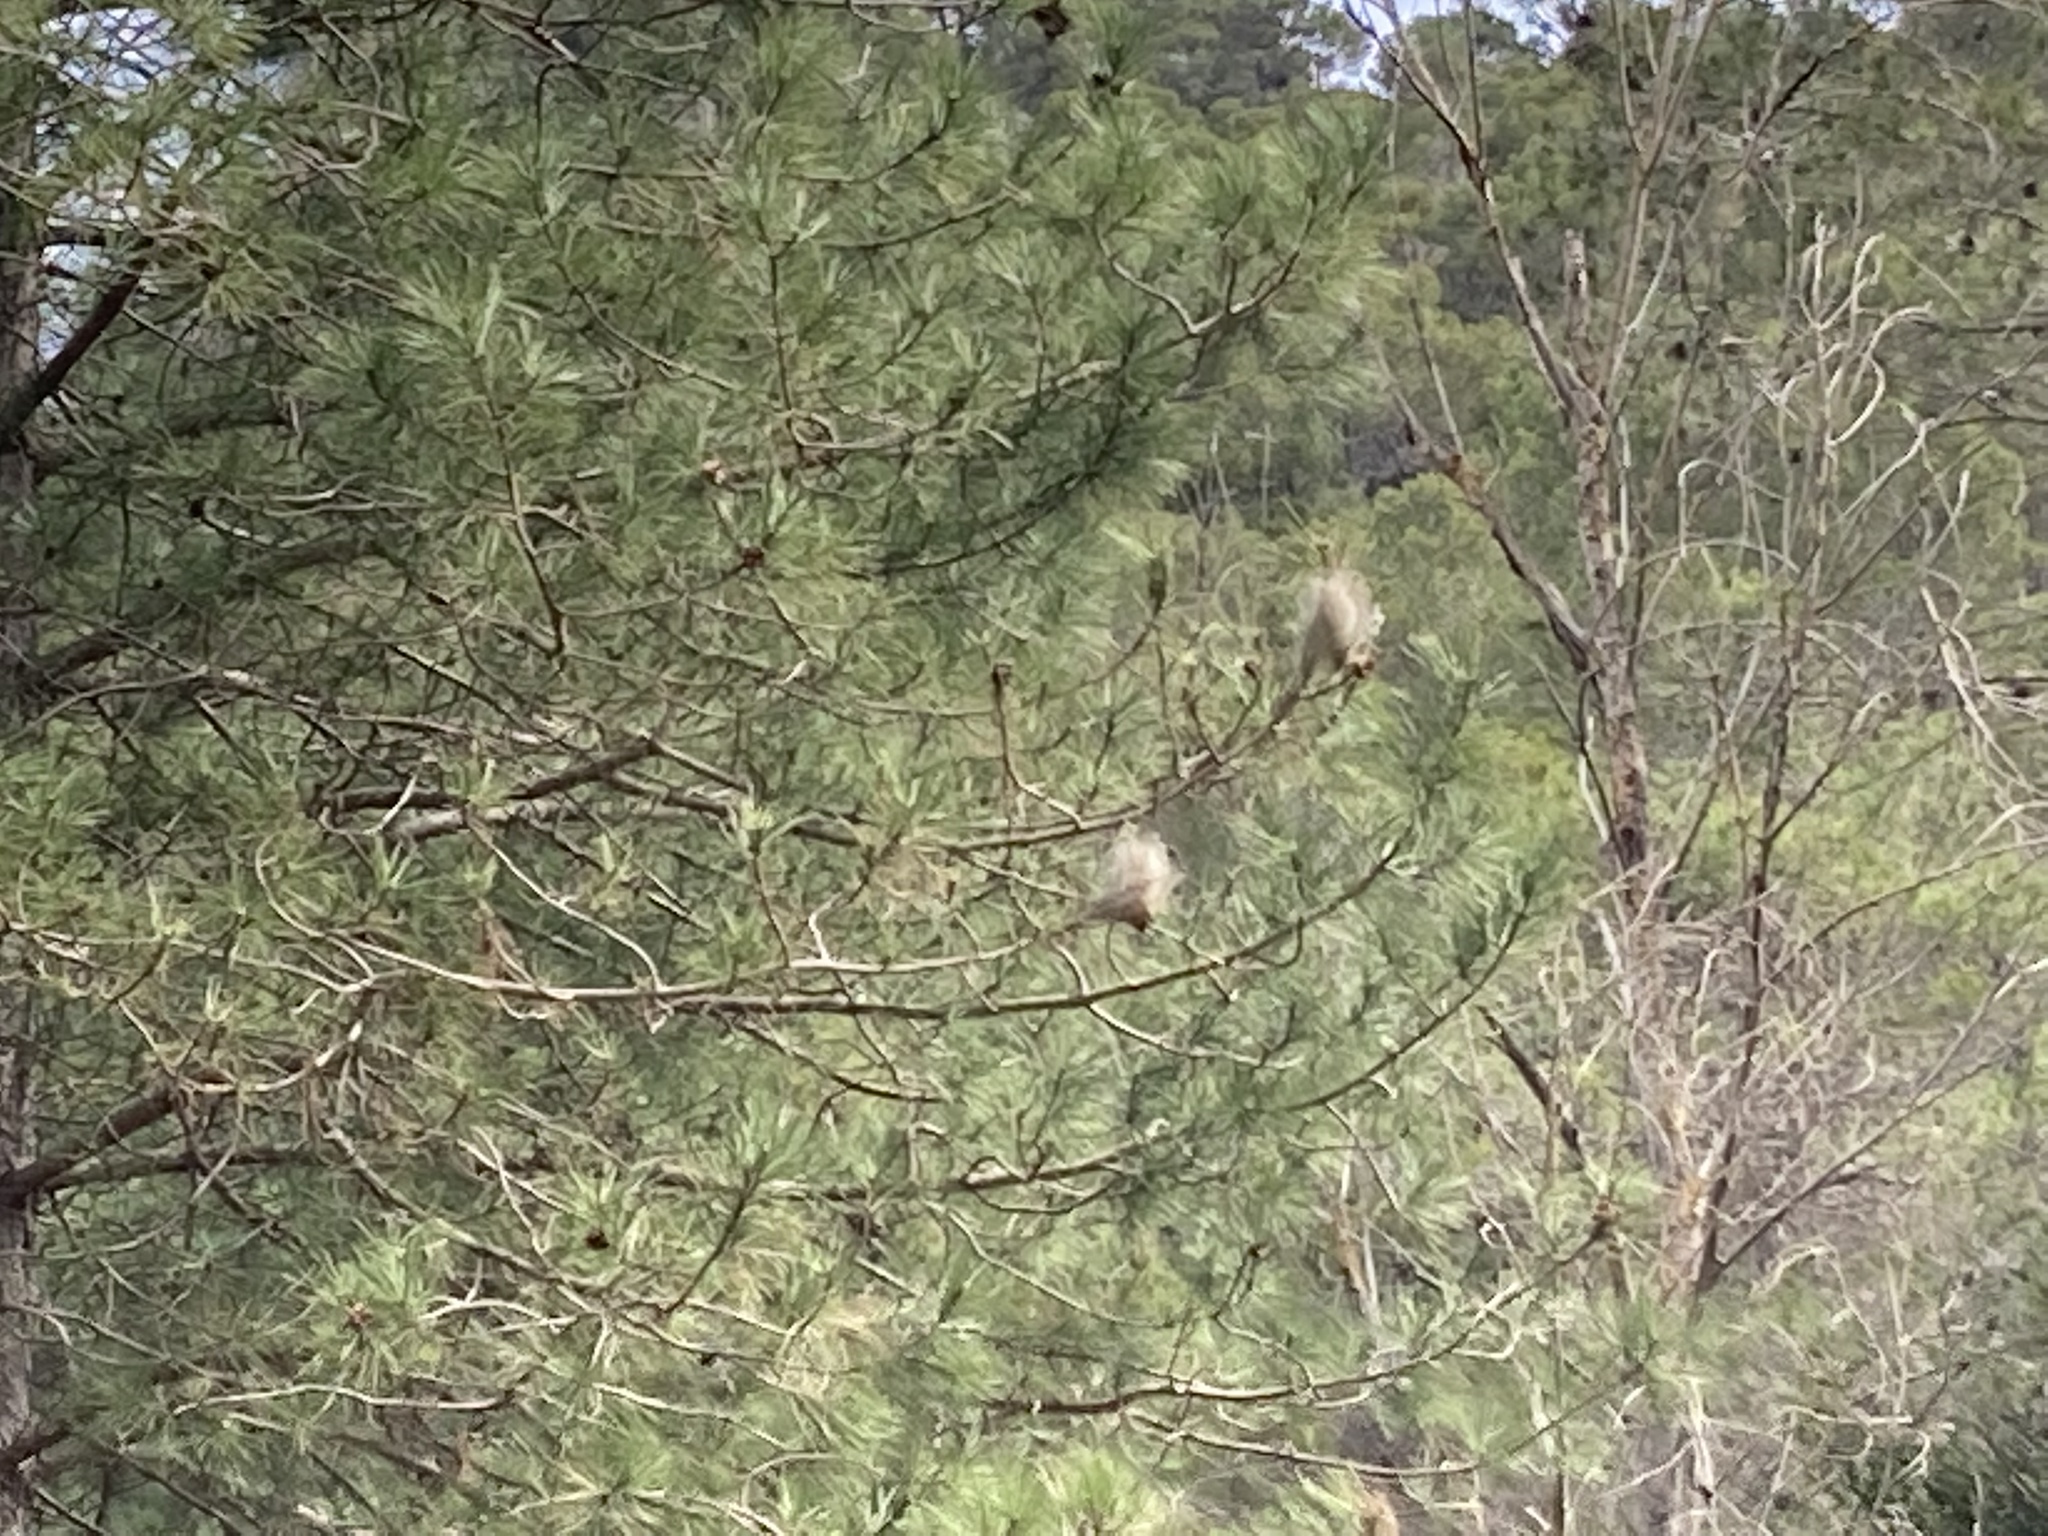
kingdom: Animalia
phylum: Arthropoda
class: Insecta
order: Lepidoptera
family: Notodontidae
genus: Thaumetopoea
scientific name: Thaumetopoea pityocampa
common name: Pine processionary
